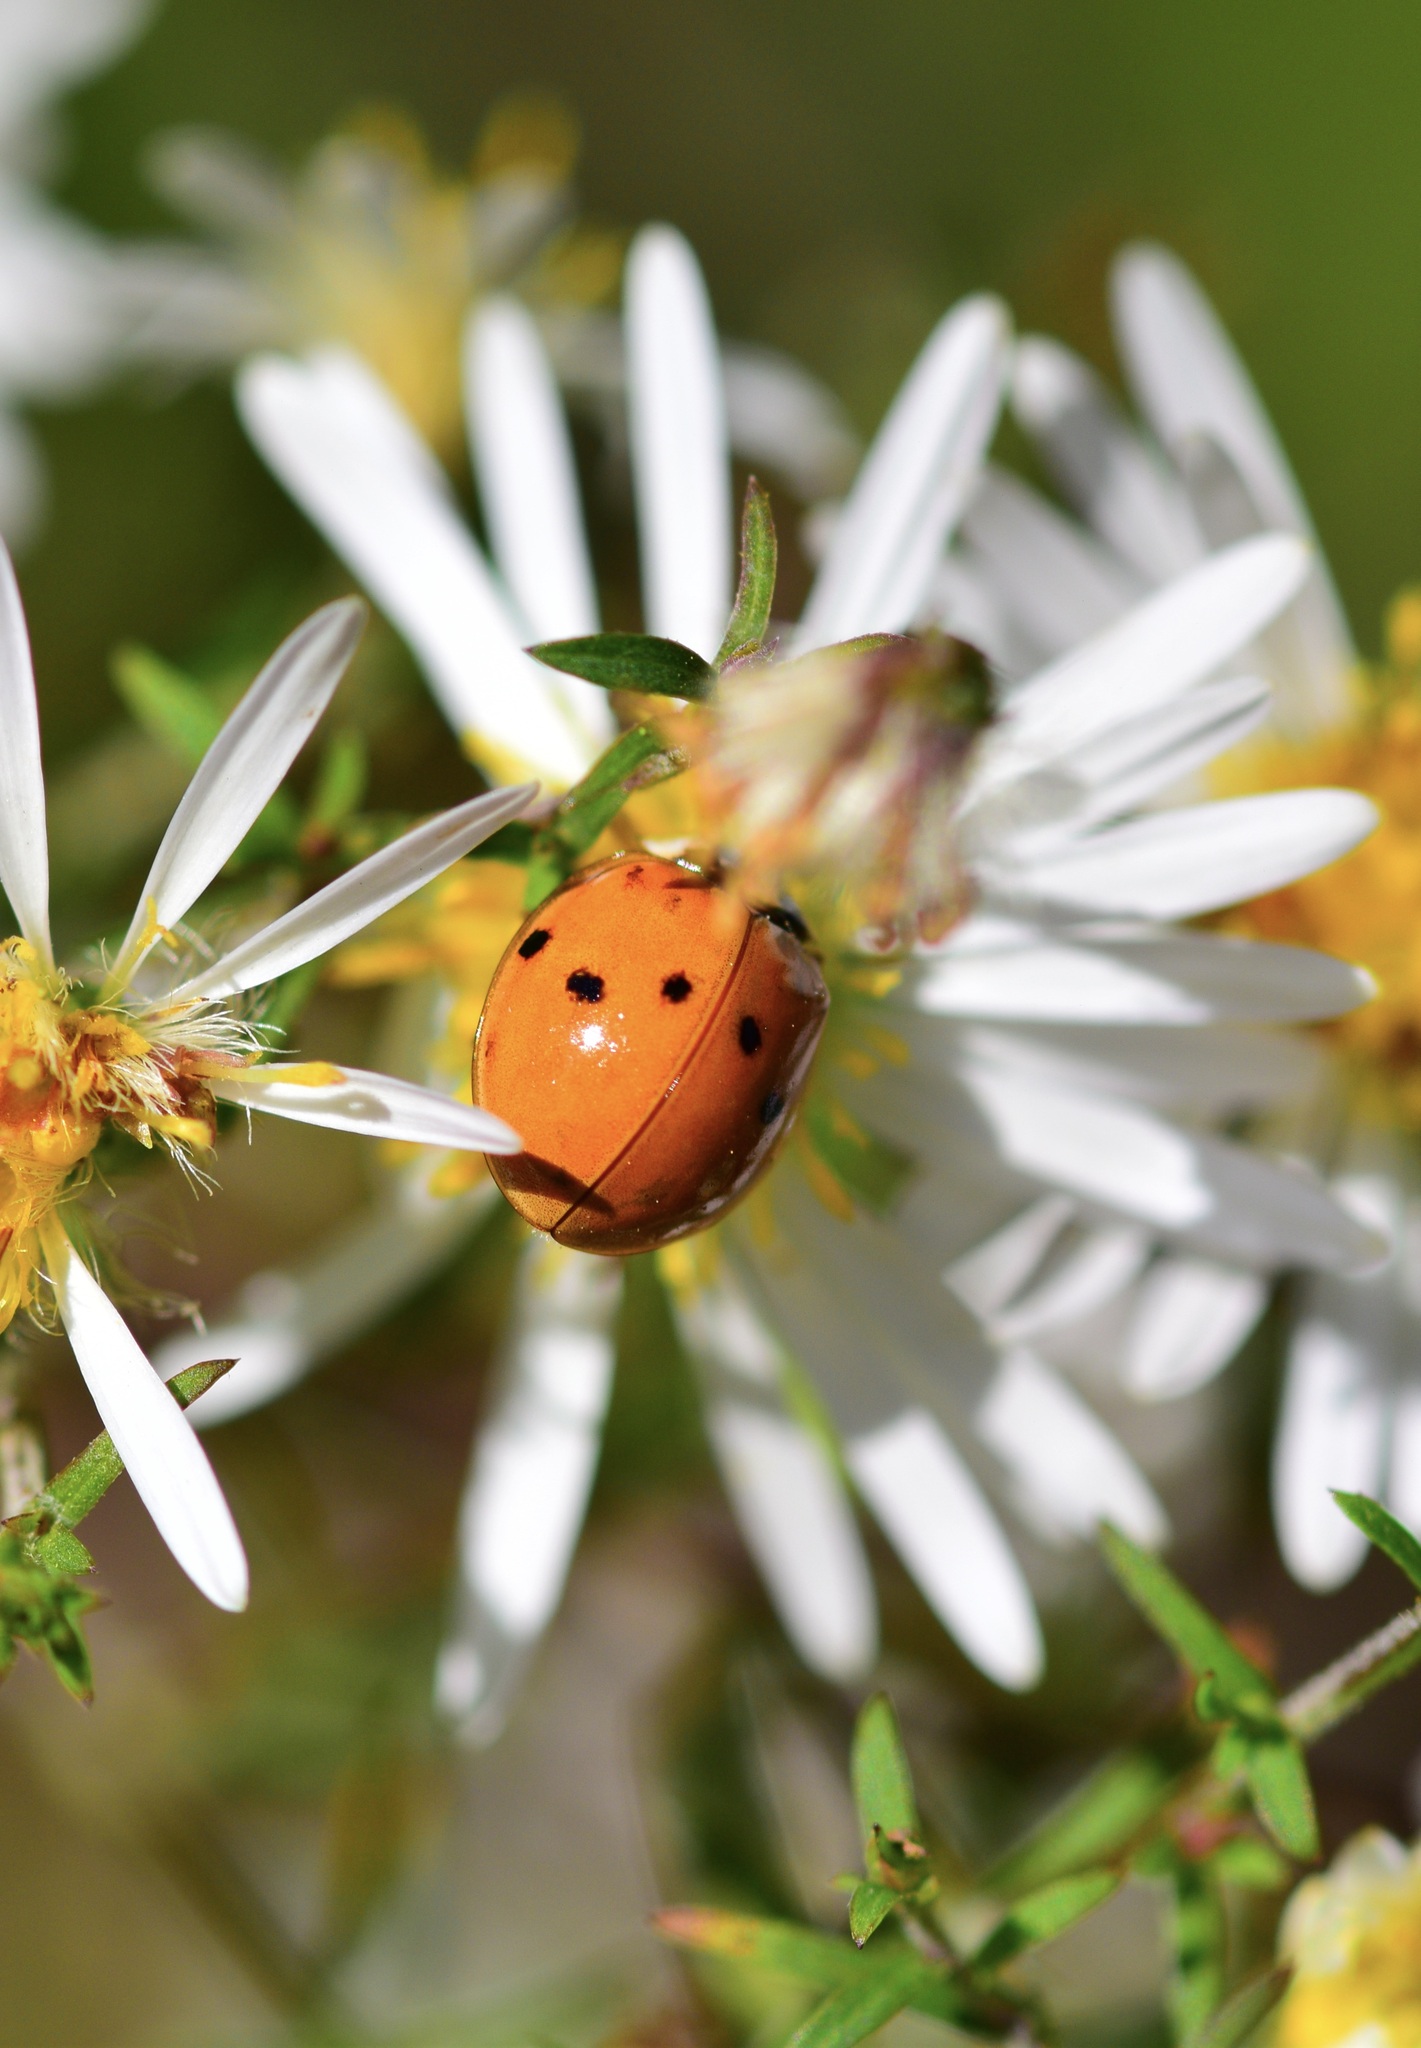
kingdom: Animalia
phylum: Arthropoda
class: Insecta
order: Coleoptera
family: Coccinellidae
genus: Harmonia
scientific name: Harmonia axyridis
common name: Harlequin ladybird
